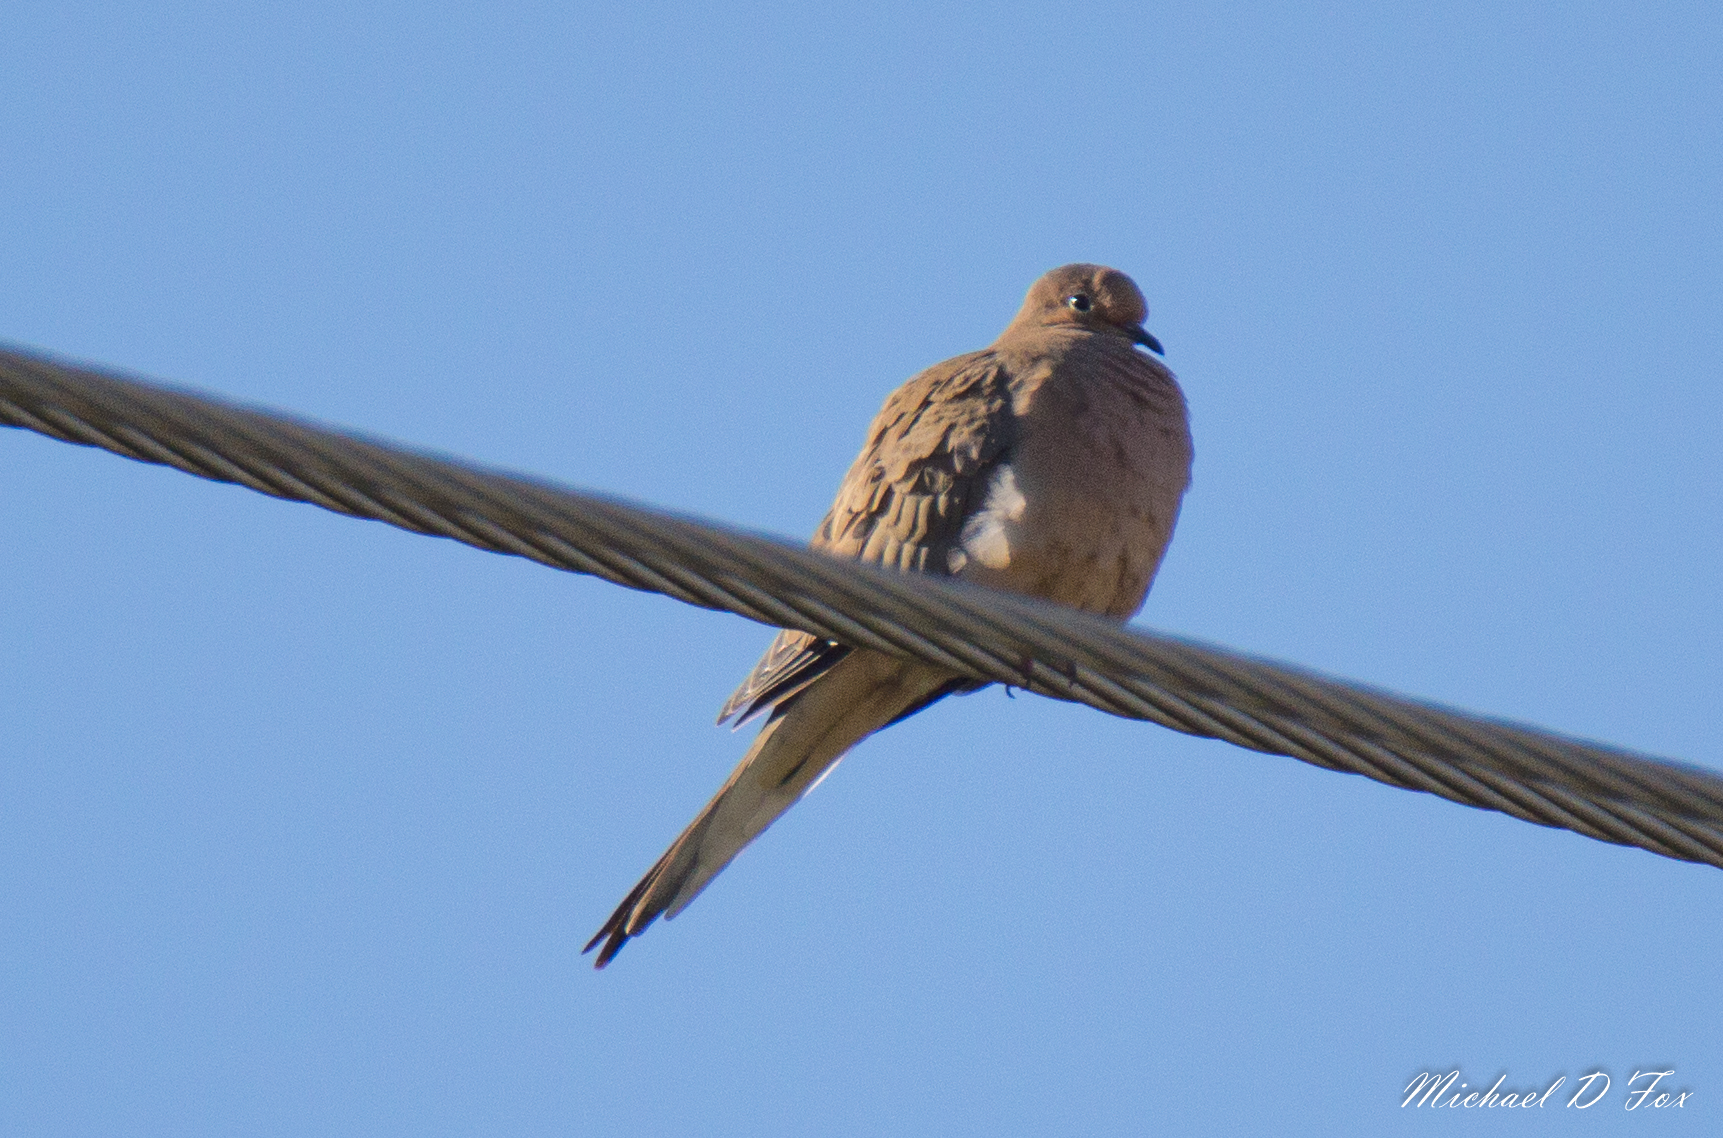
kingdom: Animalia
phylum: Chordata
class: Aves
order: Columbiformes
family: Columbidae
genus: Zenaida
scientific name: Zenaida macroura
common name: Mourning dove
